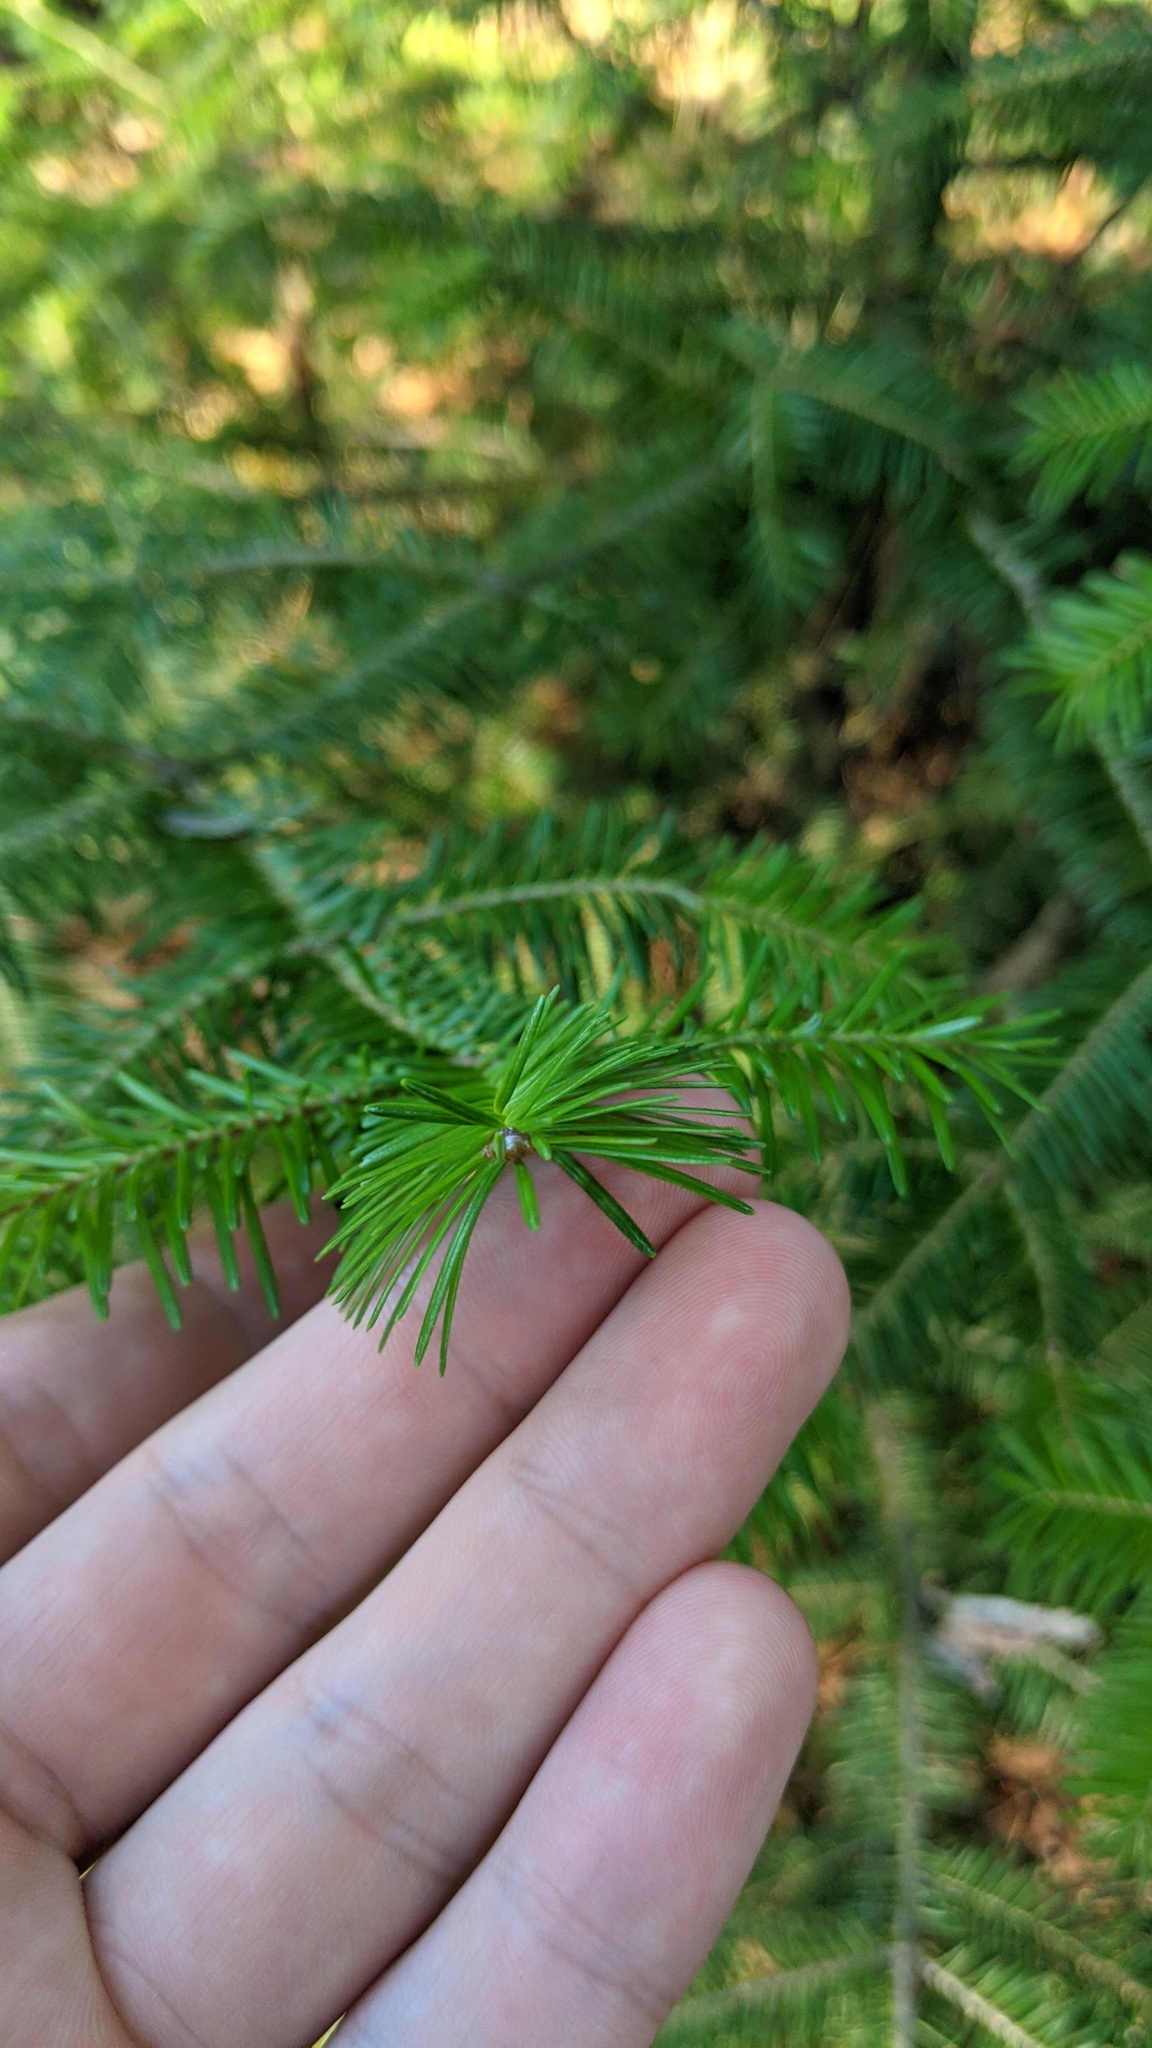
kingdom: Plantae
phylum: Tracheophyta
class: Pinopsida
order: Pinales
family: Pinaceae
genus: Abies
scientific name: Abies balsamea
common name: Balsam fir
